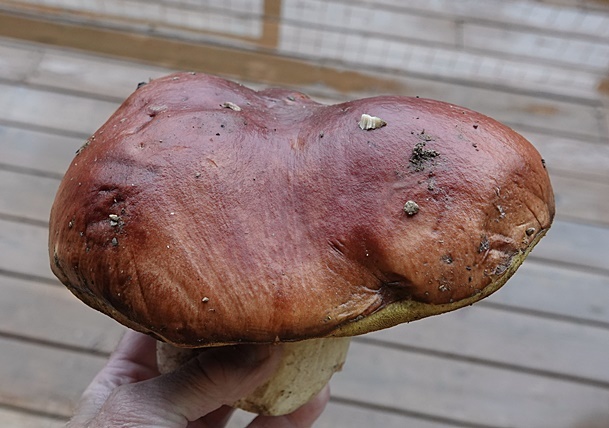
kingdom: Fungi
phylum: Basidiomycota
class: Agaricomycetes
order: Boletales
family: Boletaceae
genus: Boletus
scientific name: Boletus rubriceps
